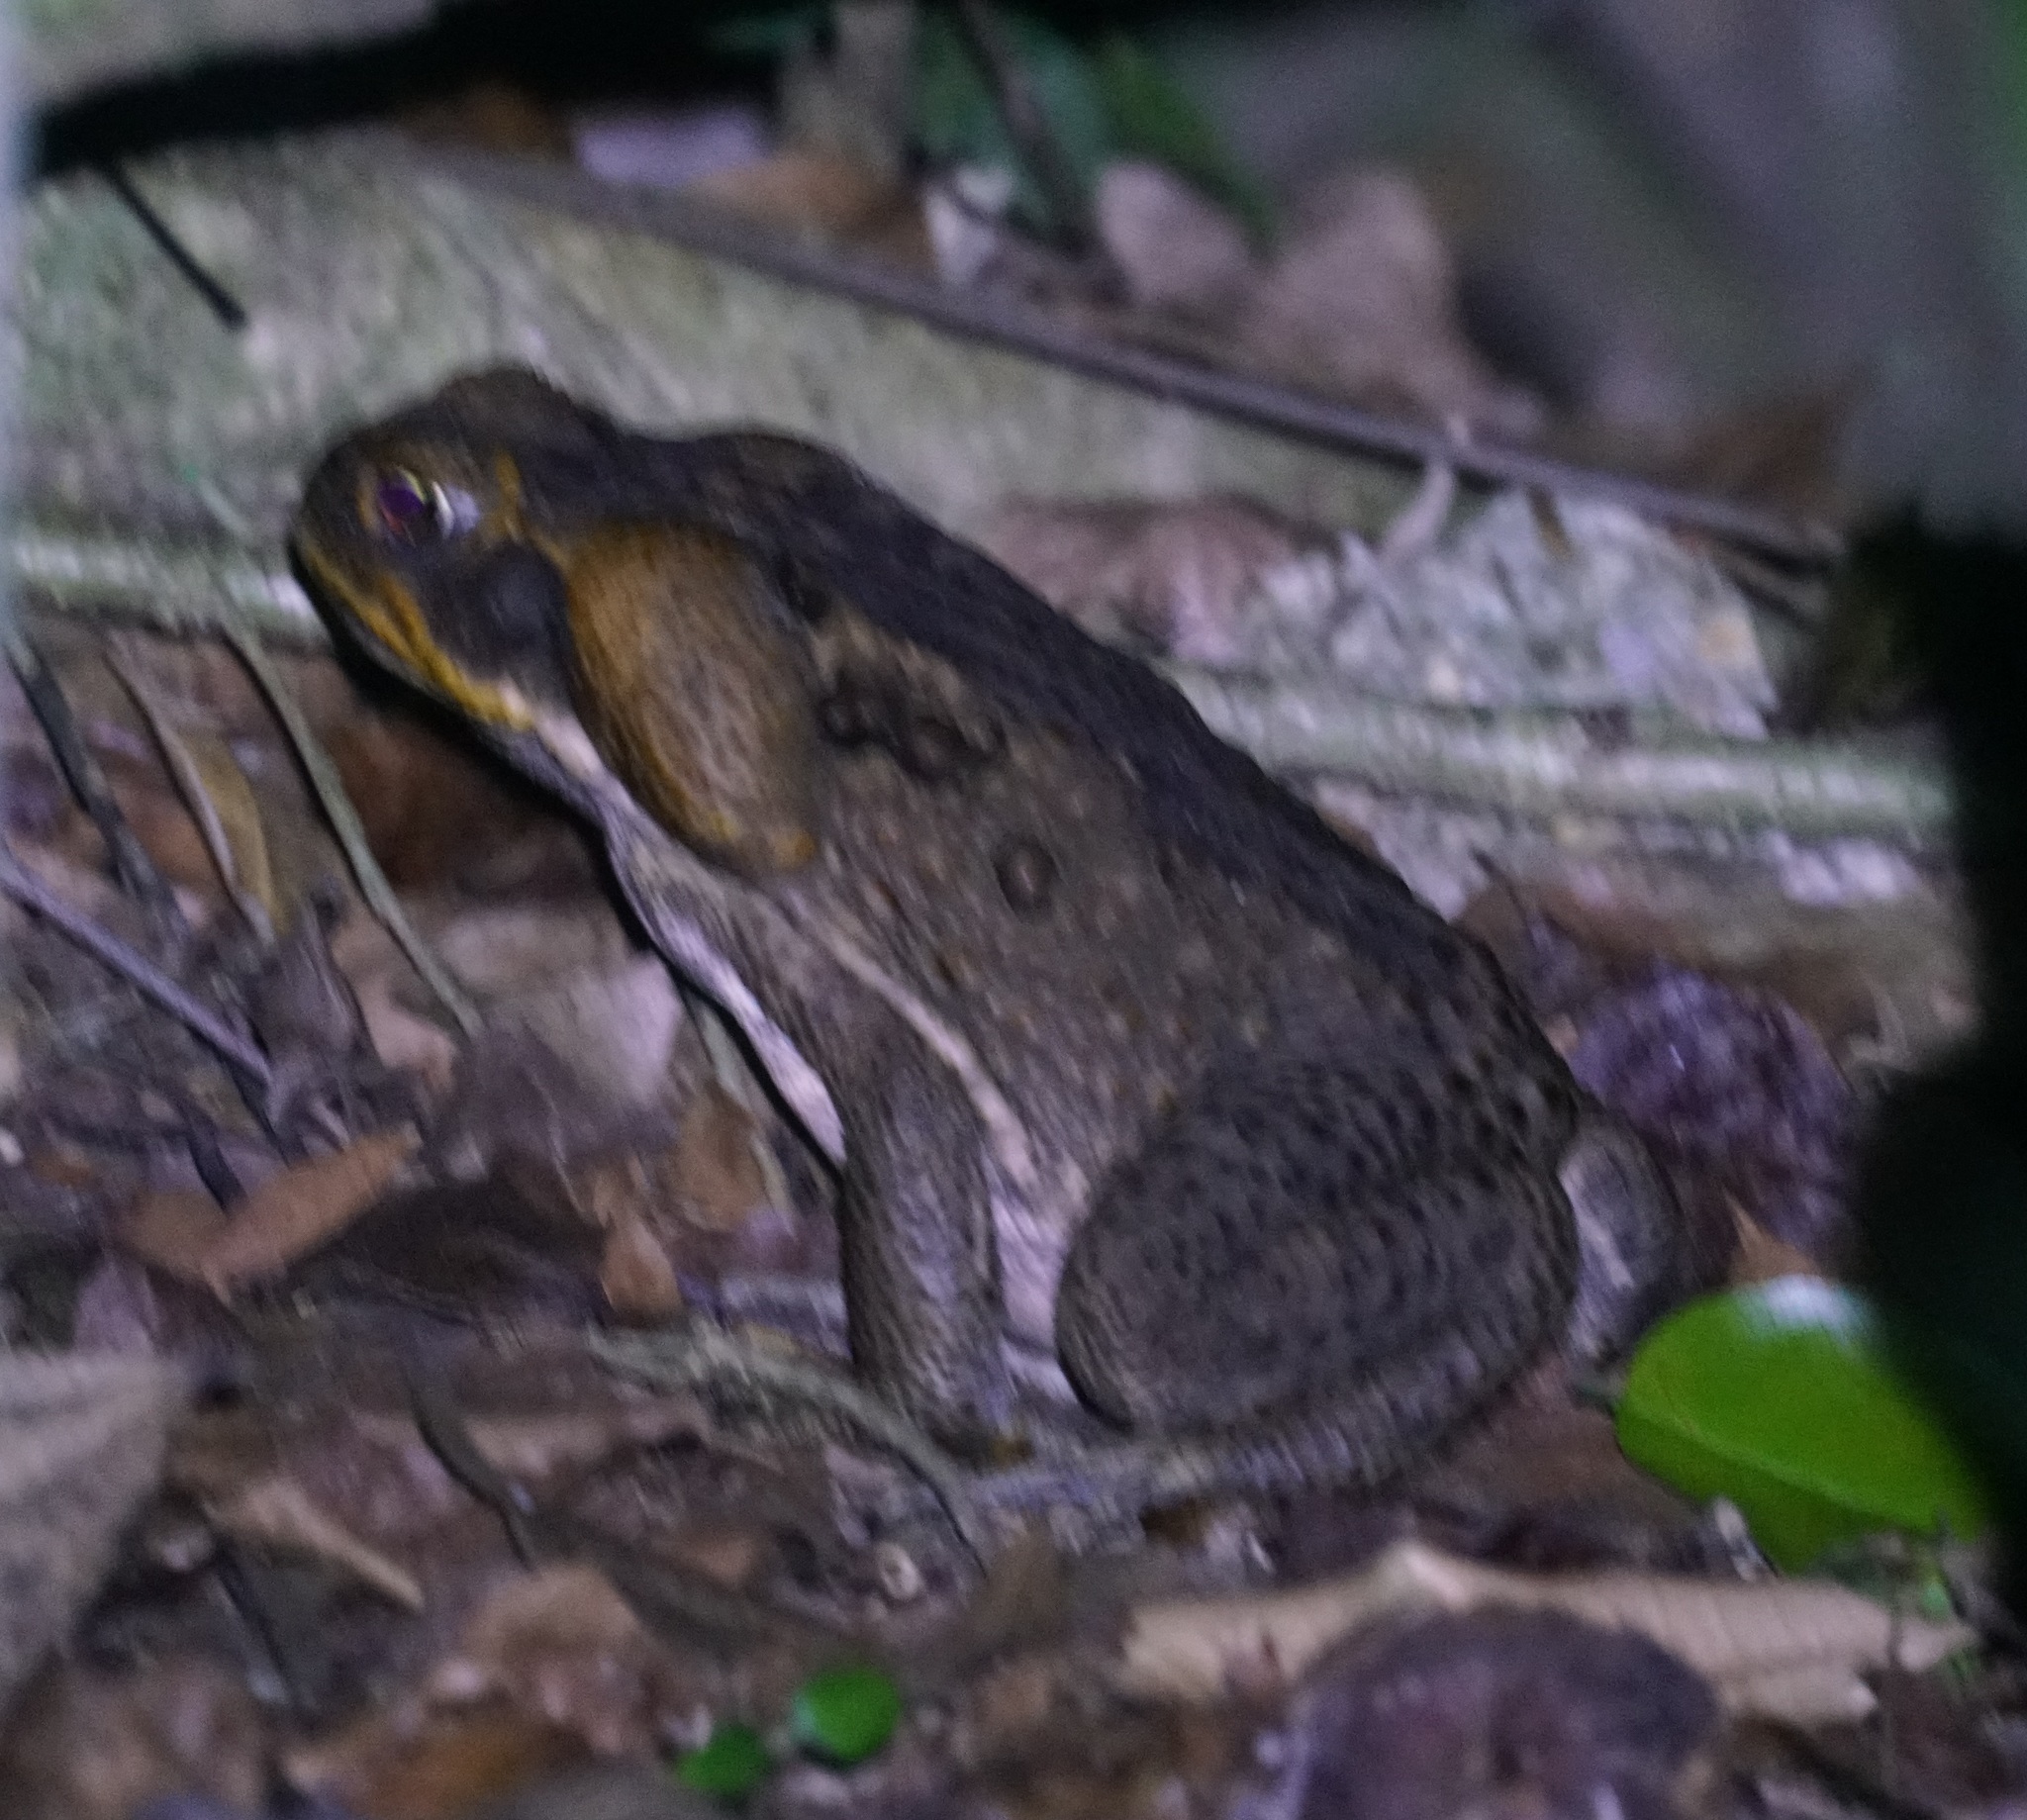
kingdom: Animalia
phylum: Chordata
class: Amphibia
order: Anura
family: Bufonidae
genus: Rhinella
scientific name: Rhinella marina
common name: Cane toad
